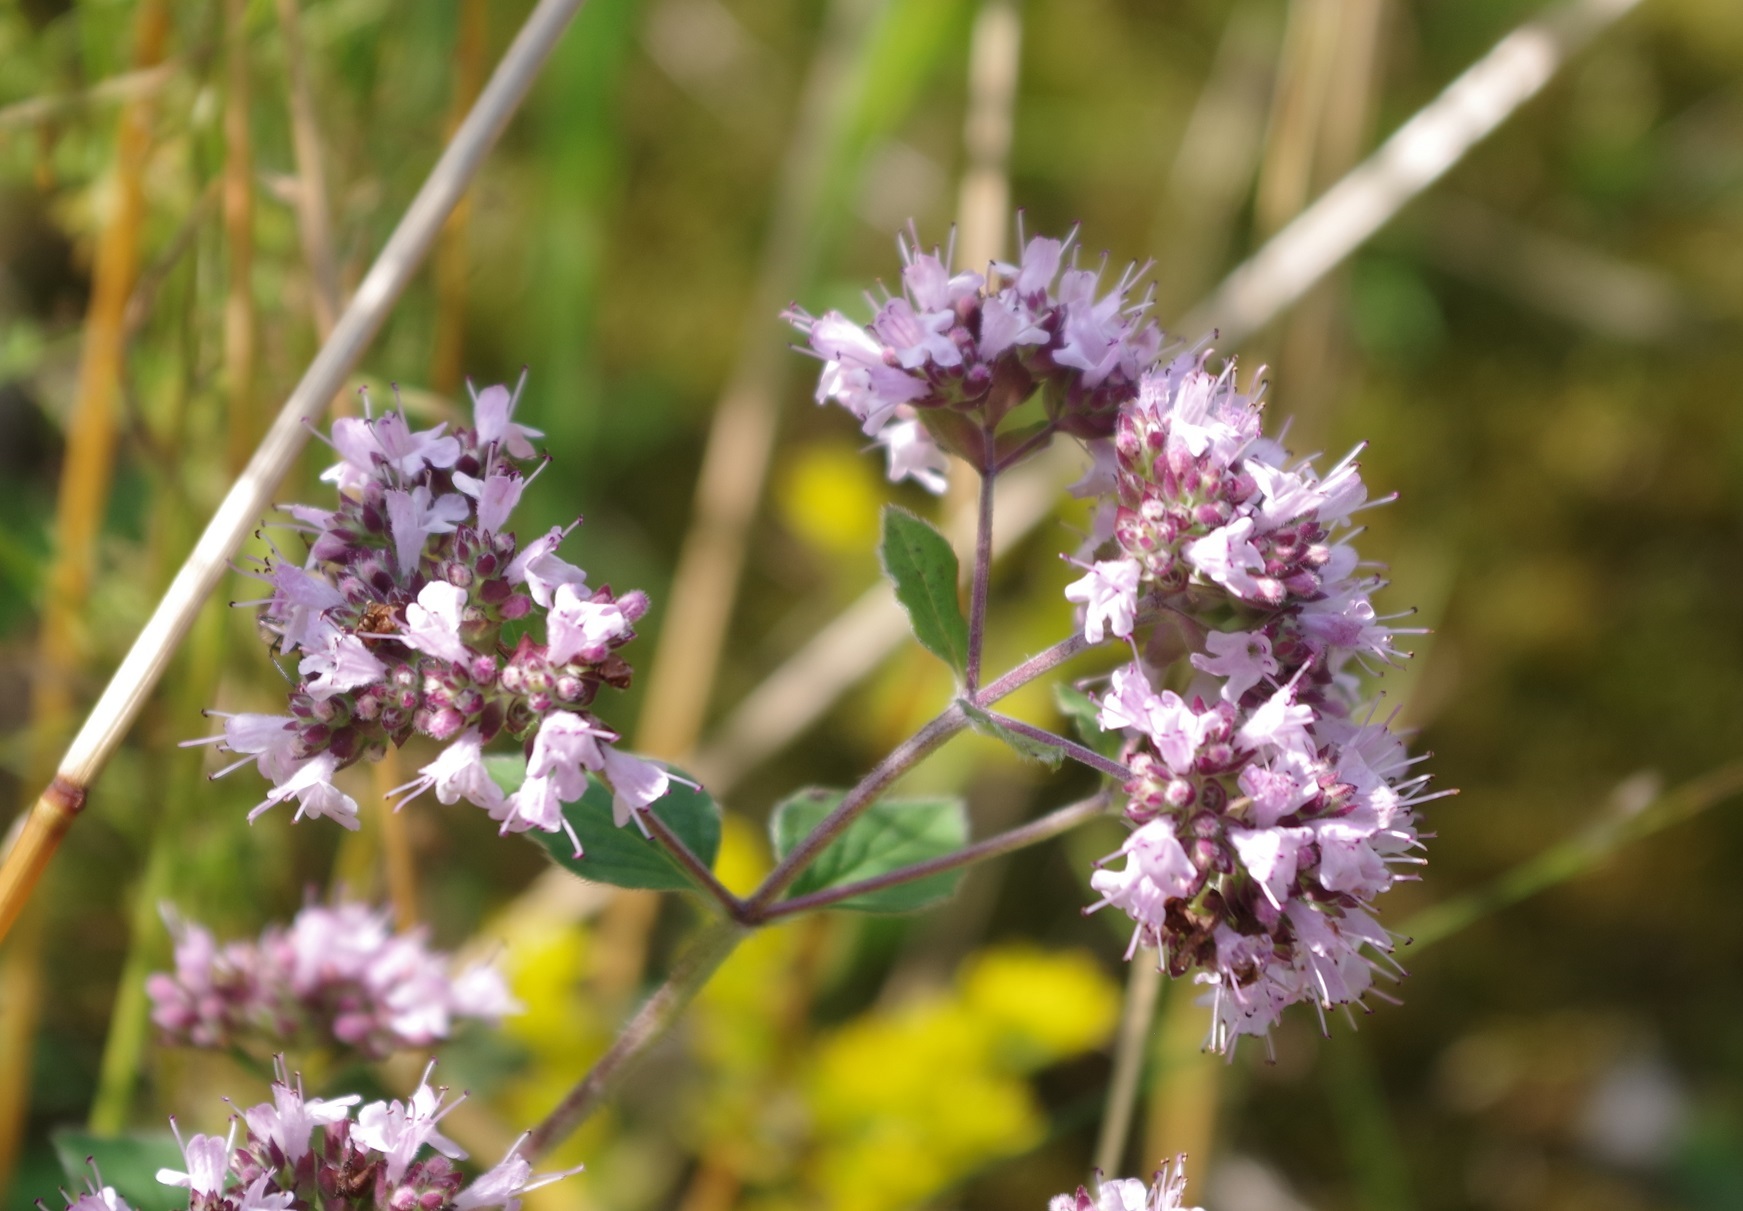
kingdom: Plantae
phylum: Tracheophyta
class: Magnoliopsida
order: Lamiales
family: Lamiaceae
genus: Origanum
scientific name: Origanum vulgare
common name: Wild marjoram
